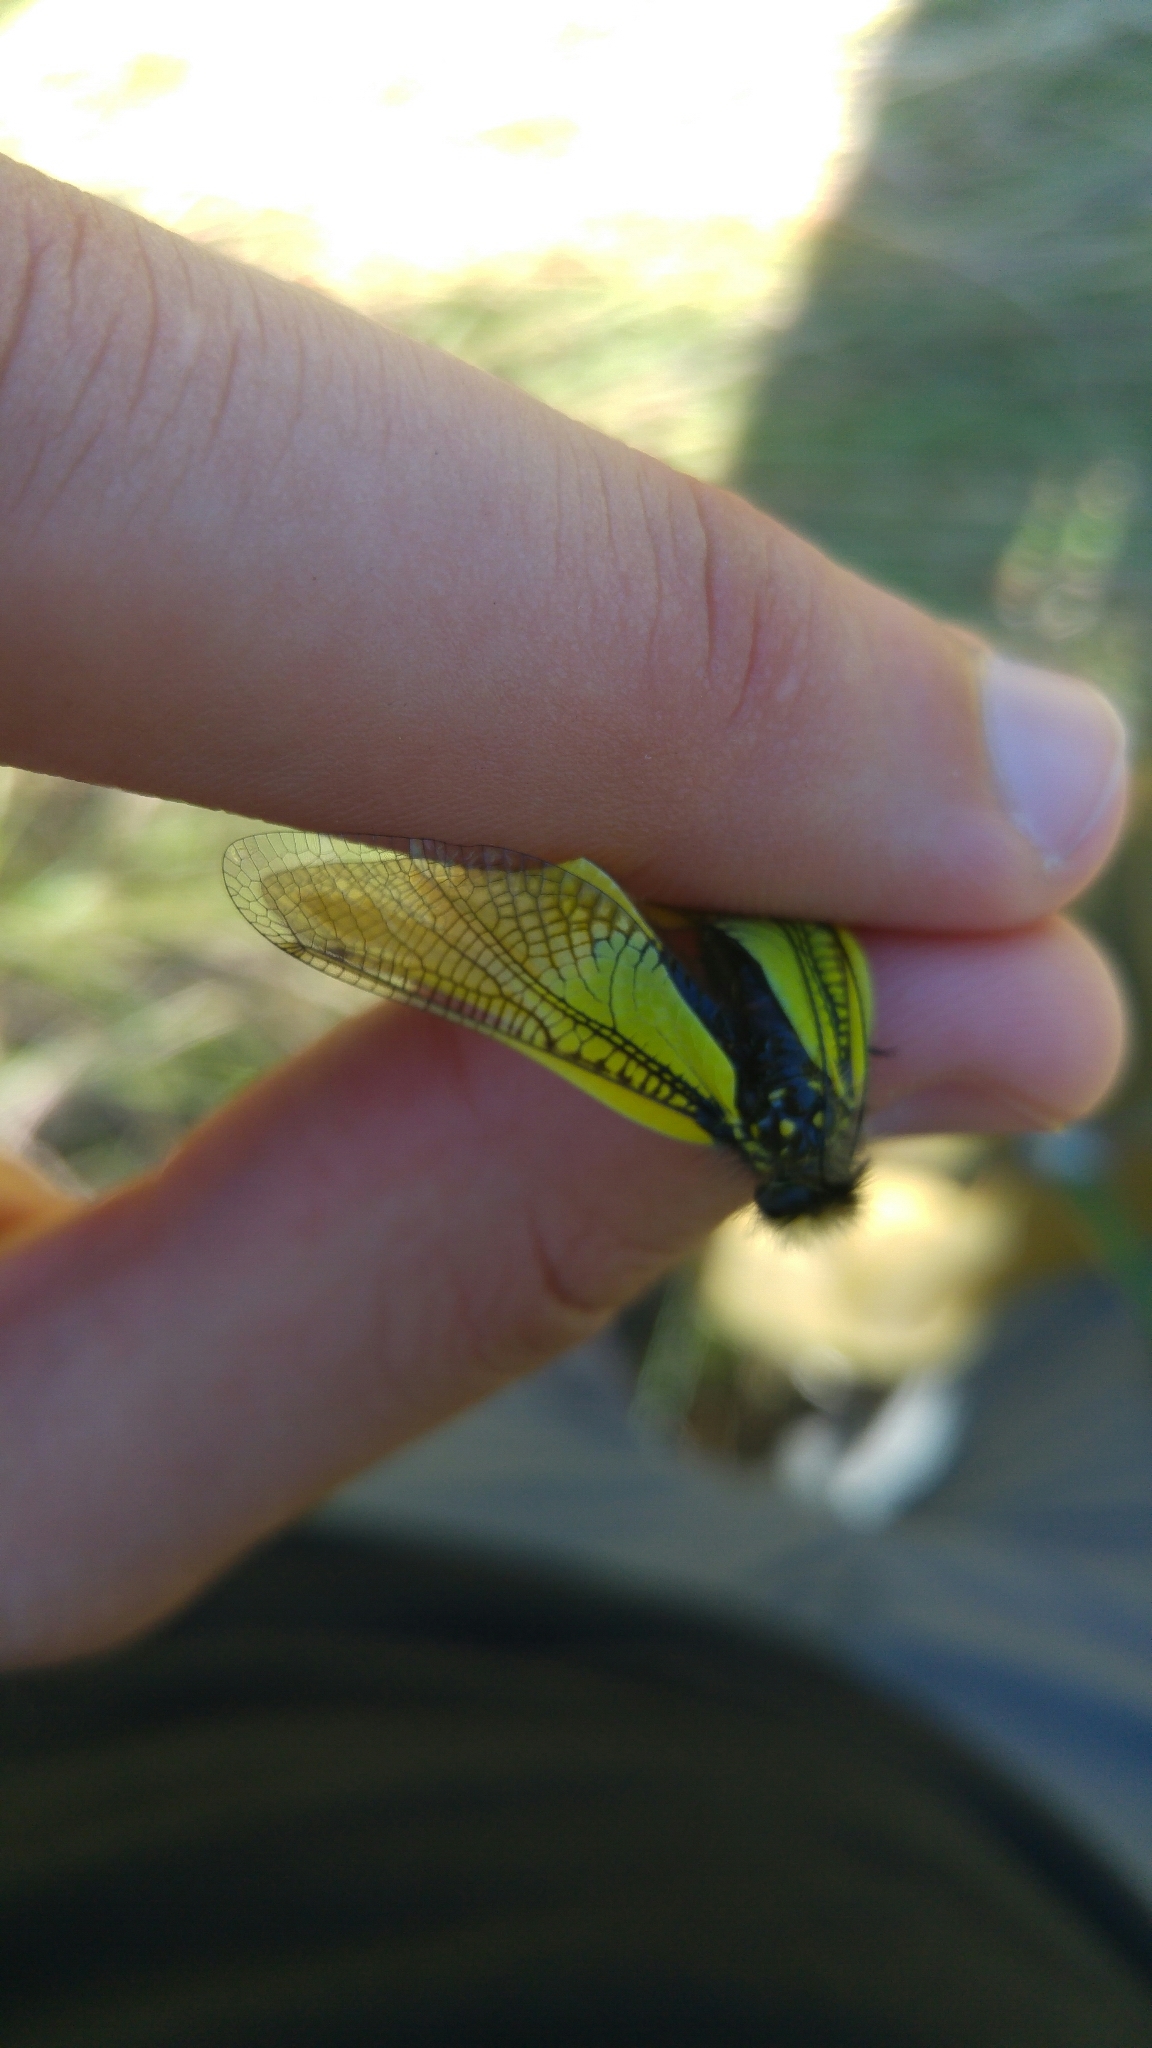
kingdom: Animalia
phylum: Arthropoda
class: Insecta
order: Neuroptera
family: Ascalaphidae
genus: Libelloides
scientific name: Libelloides cunii
